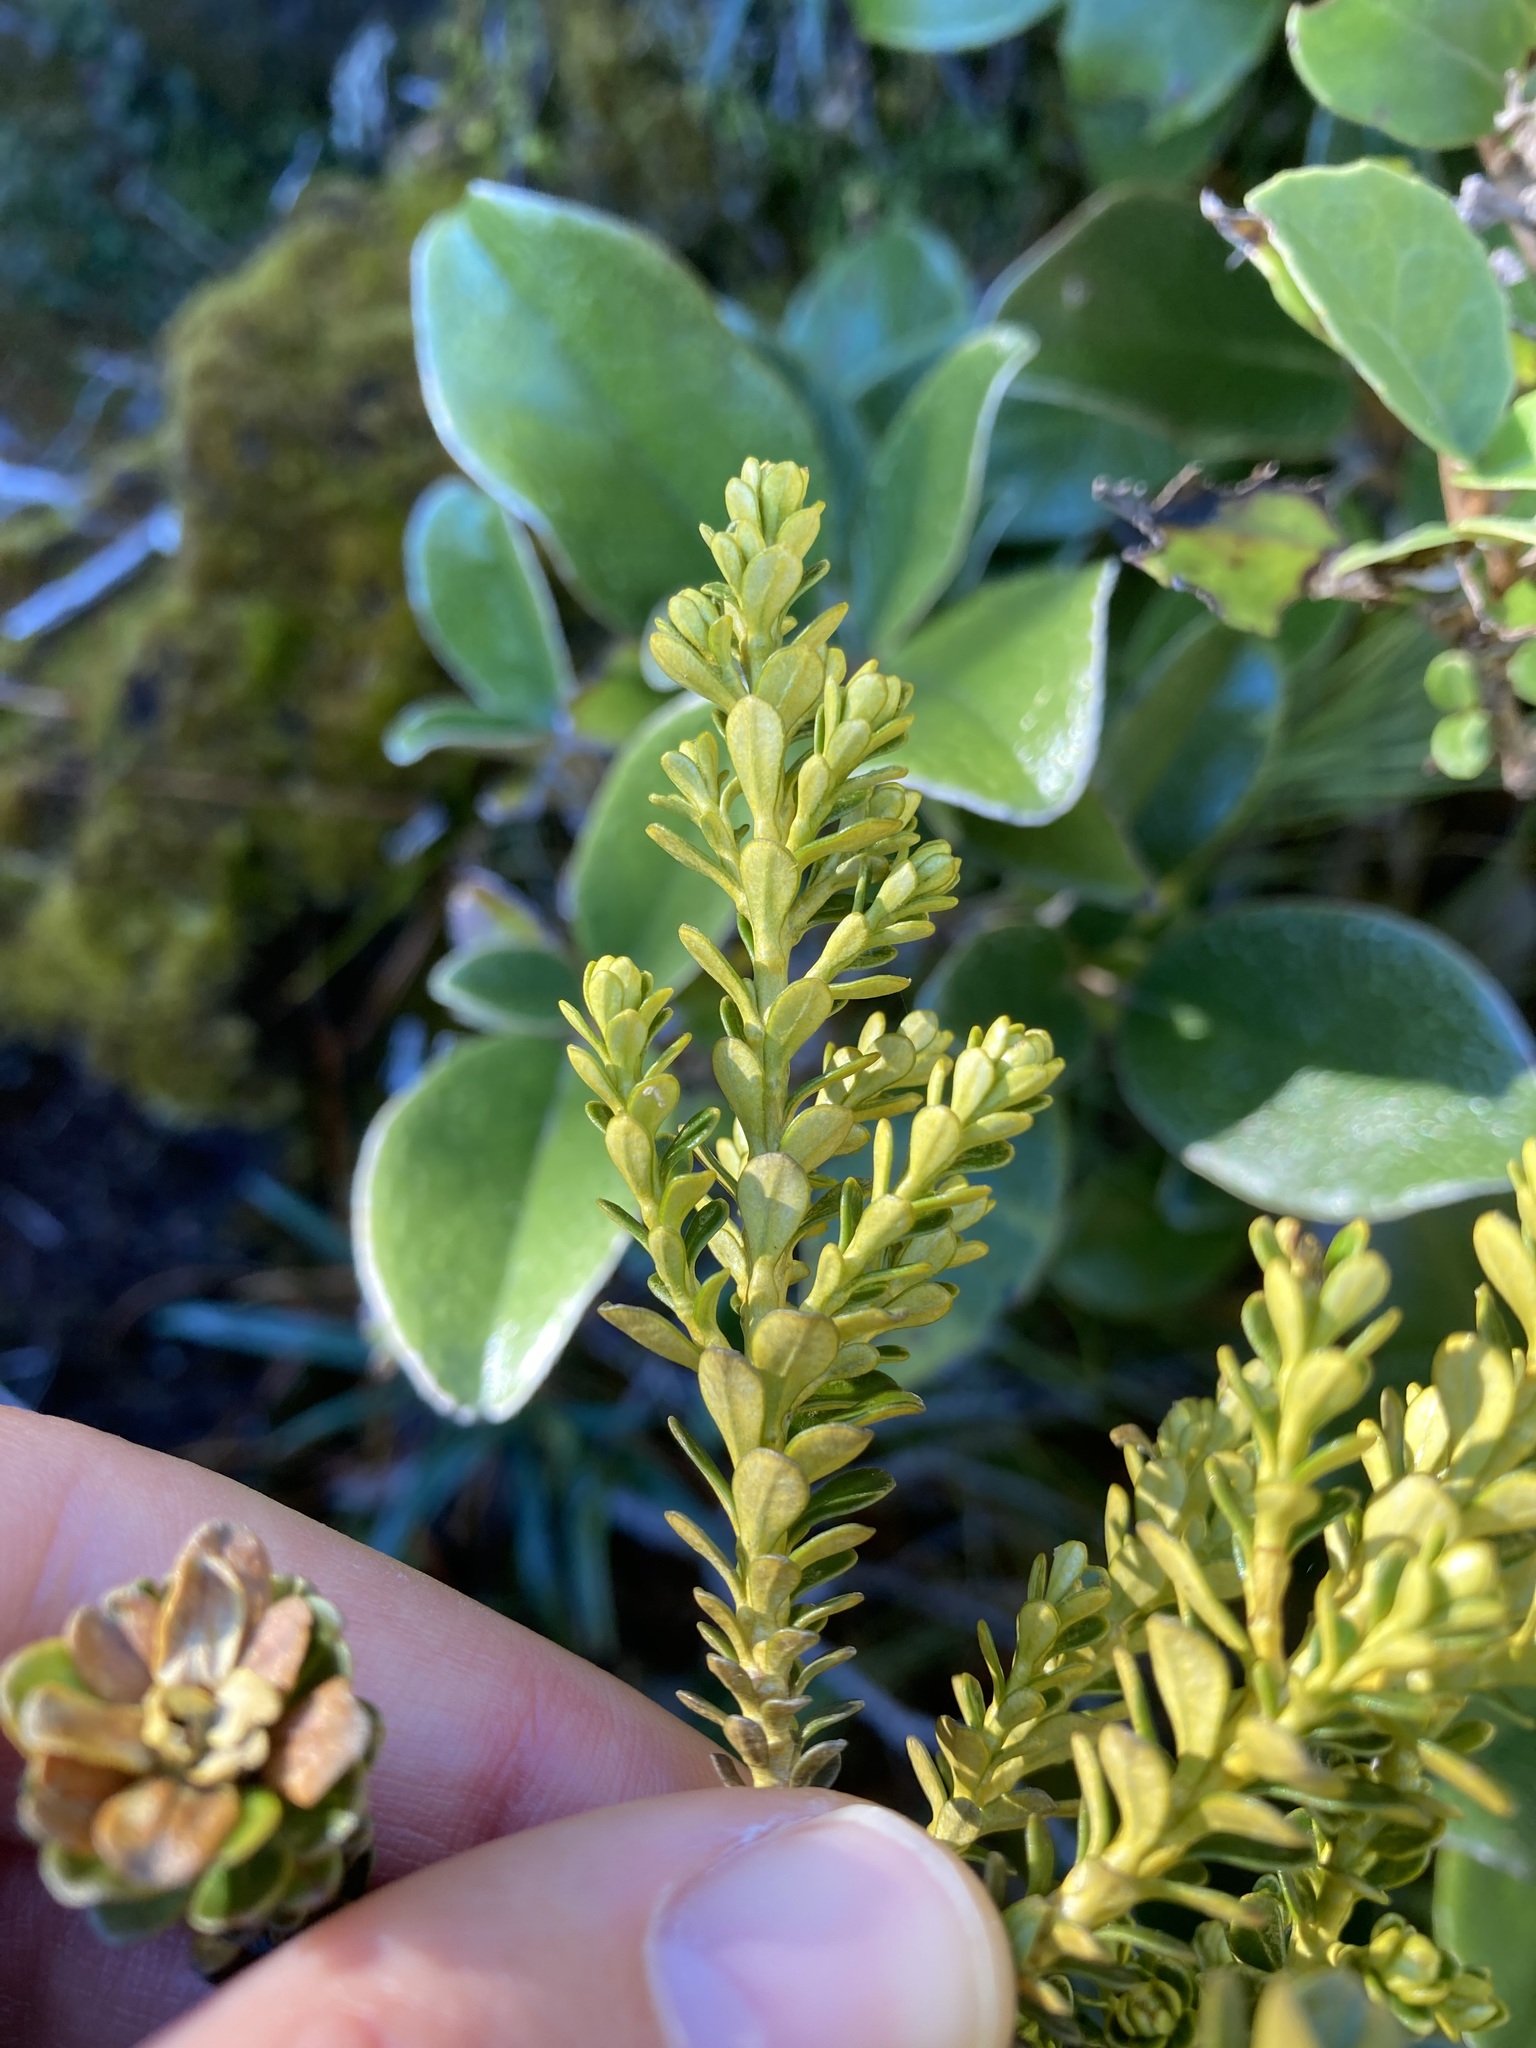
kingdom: Plantae
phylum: Tracheophyta
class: Magnoliopsida
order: Asterales
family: Asteraceae
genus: Ozothamnus
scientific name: Ozothamnus leptophyllus
